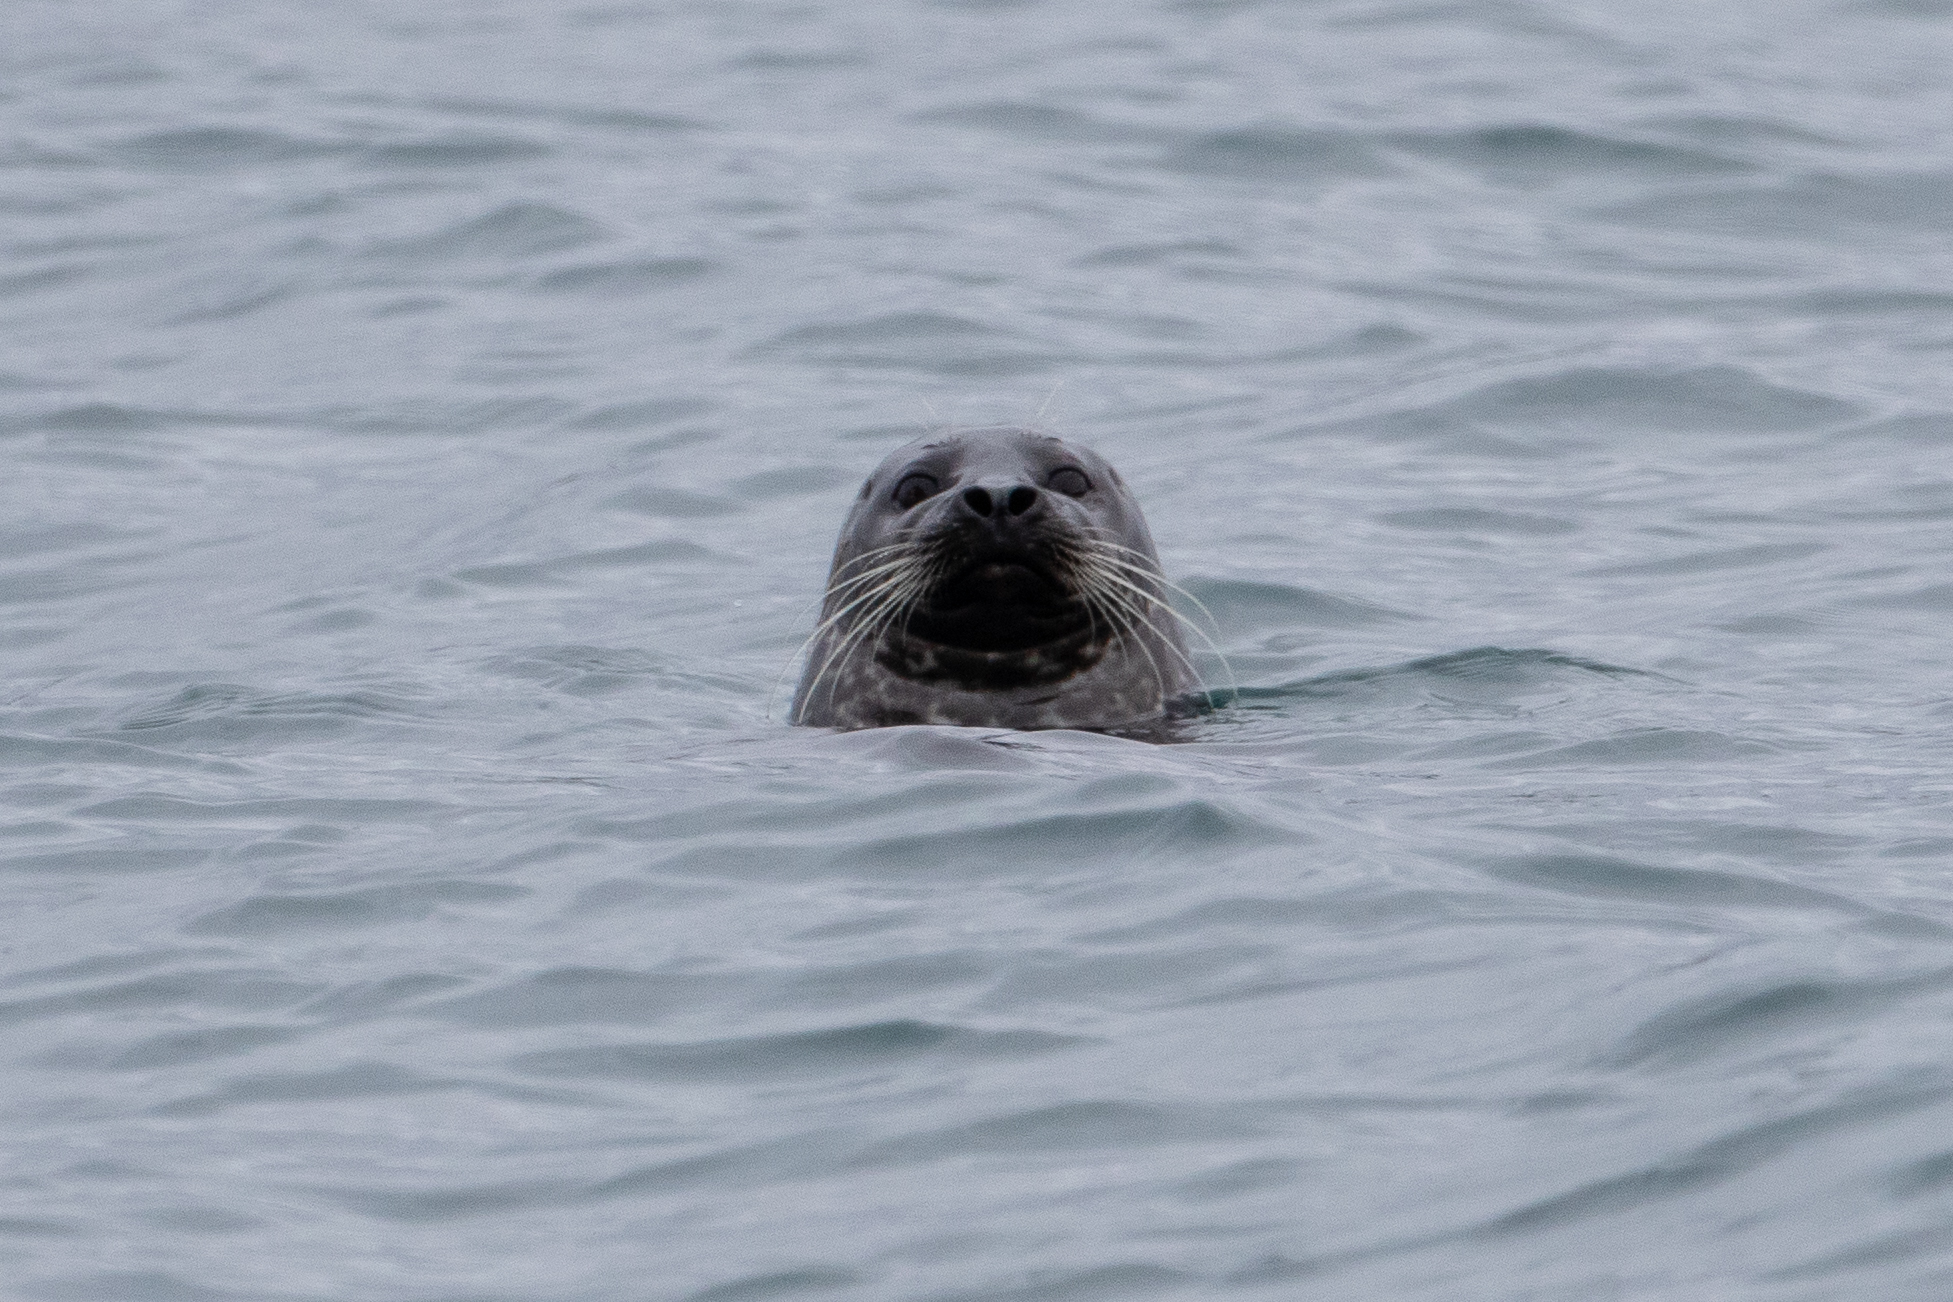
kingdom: Animalia
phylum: Chordata
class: Mammalia
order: Carnivora
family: Phocidae
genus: Phoca
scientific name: Phoca vitulina
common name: Harbor seal
